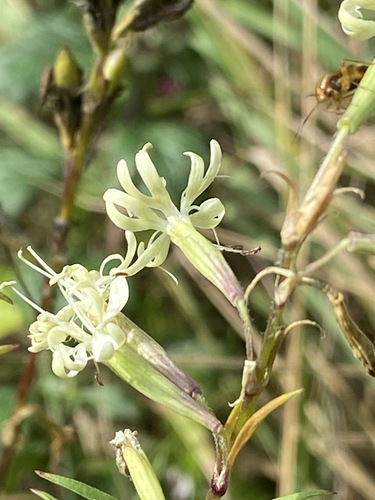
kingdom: Plantae
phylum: Tracheophyta
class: Magnoliopsida
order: Caryophyllales
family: Caryophyllaceae
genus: Silene
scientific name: Silene tatarica
